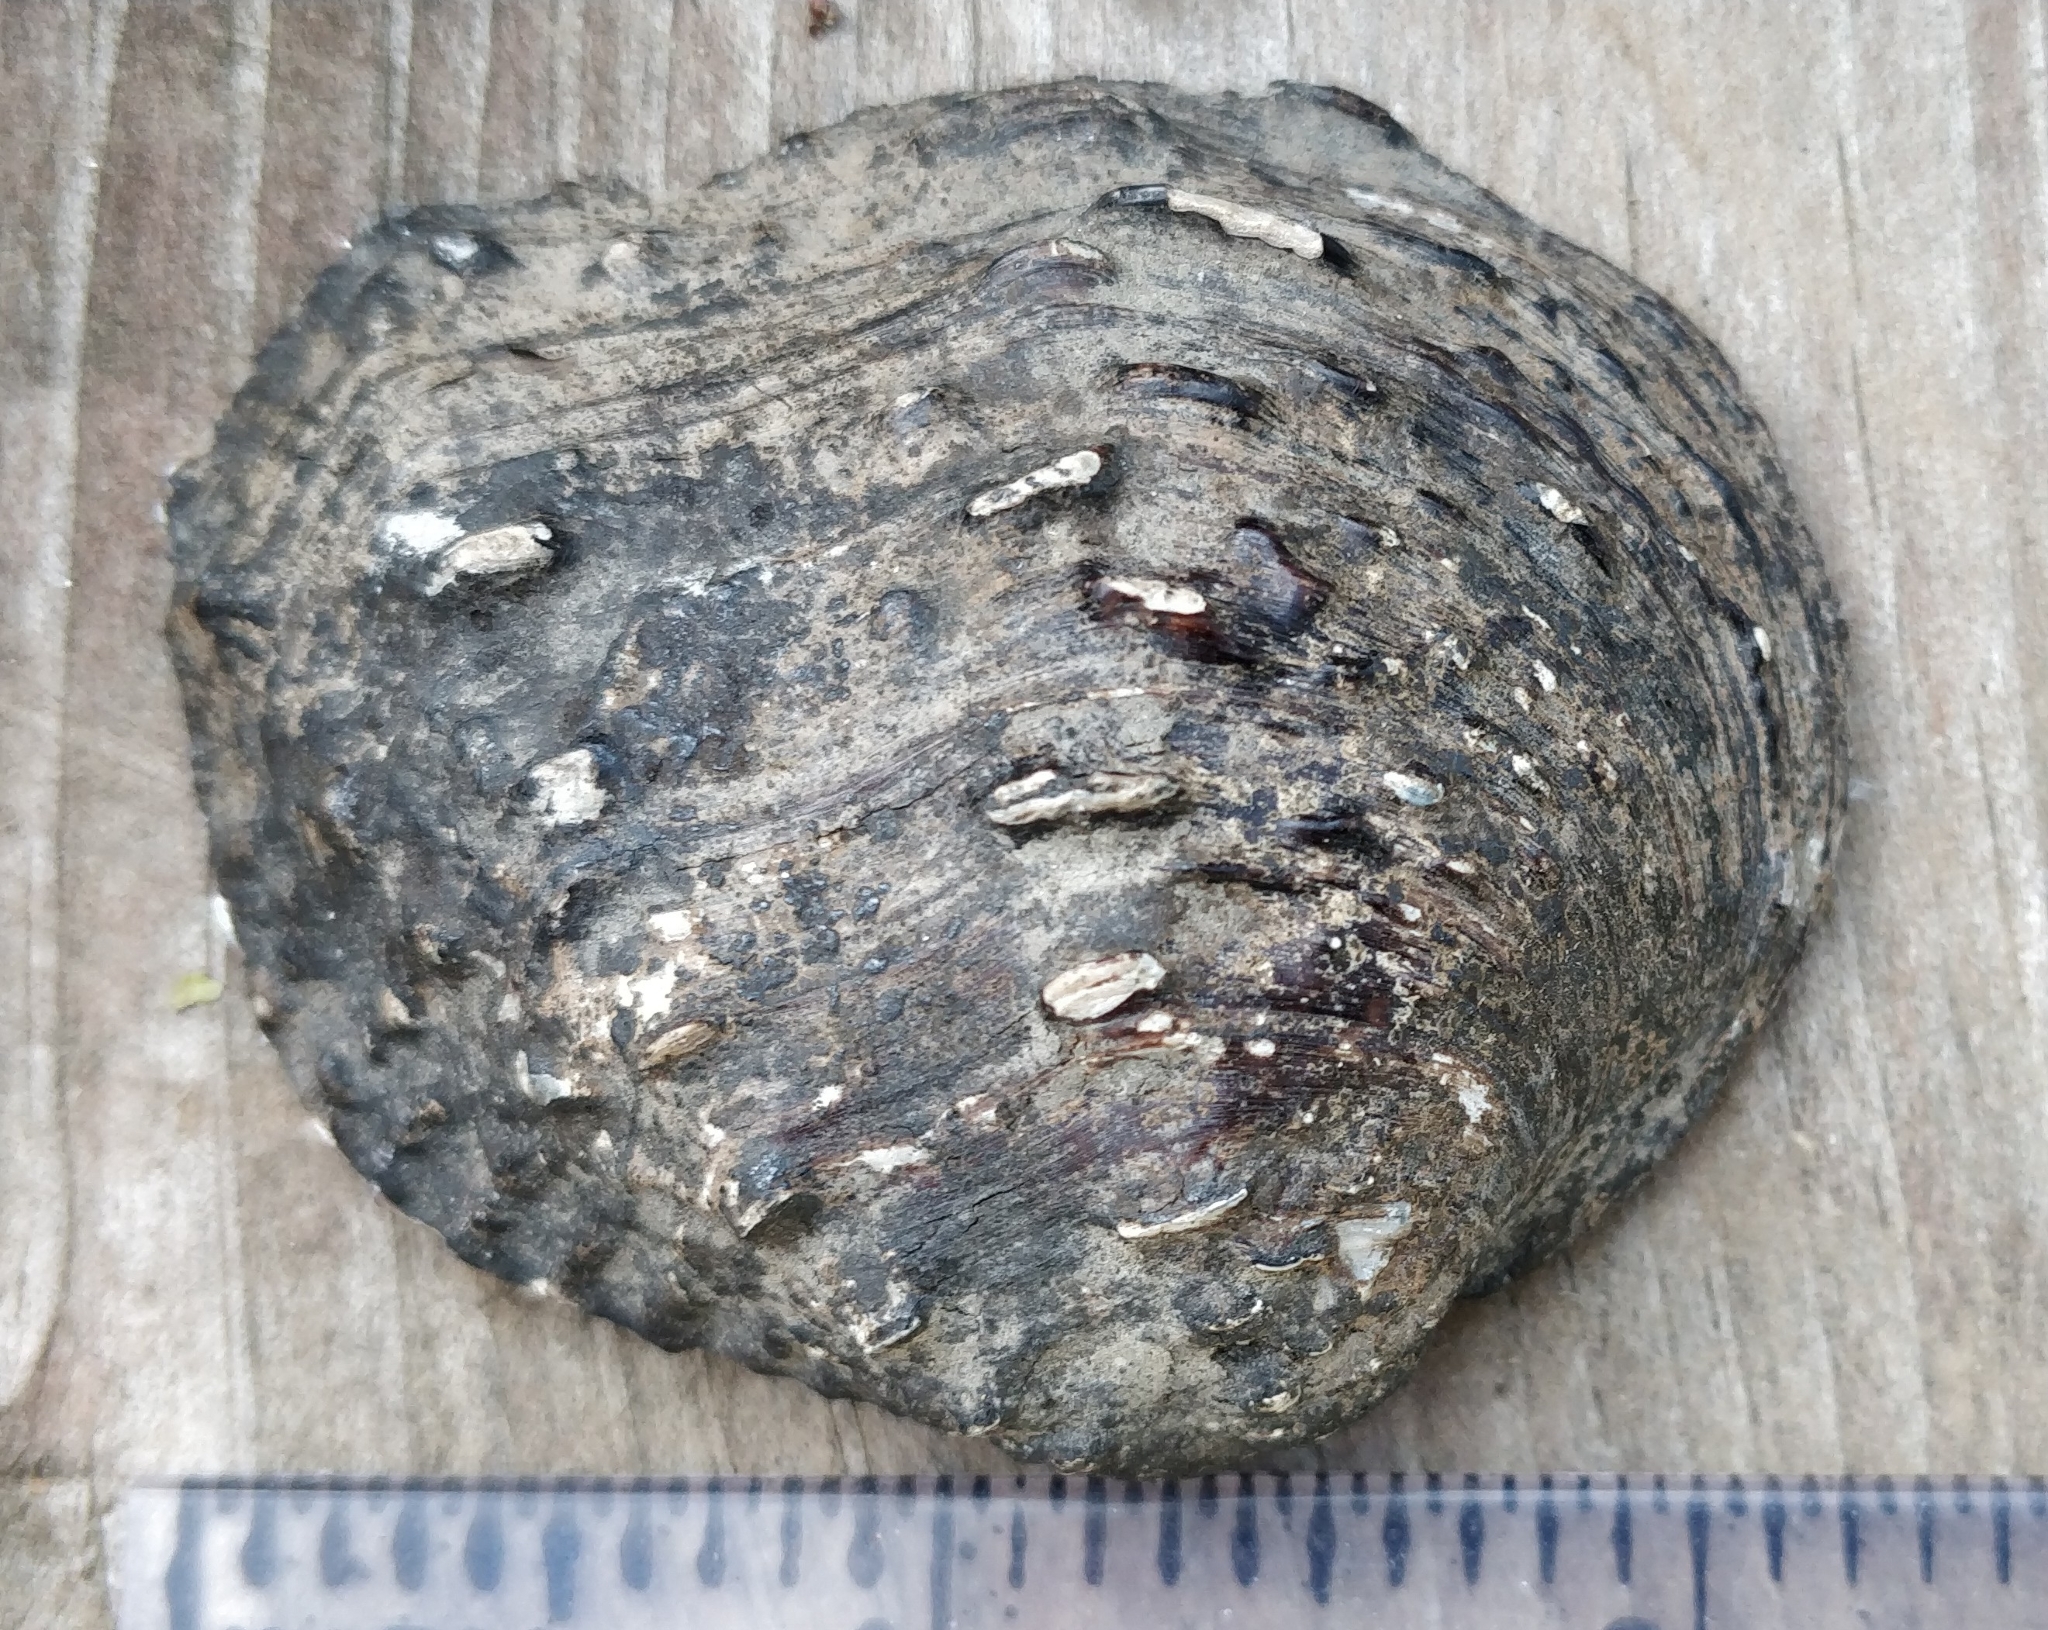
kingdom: Animalia
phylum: Mollusca
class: Bivalvia
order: Unionida
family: Unionidae
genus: Tritogonia
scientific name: Tritogonia nobilis
